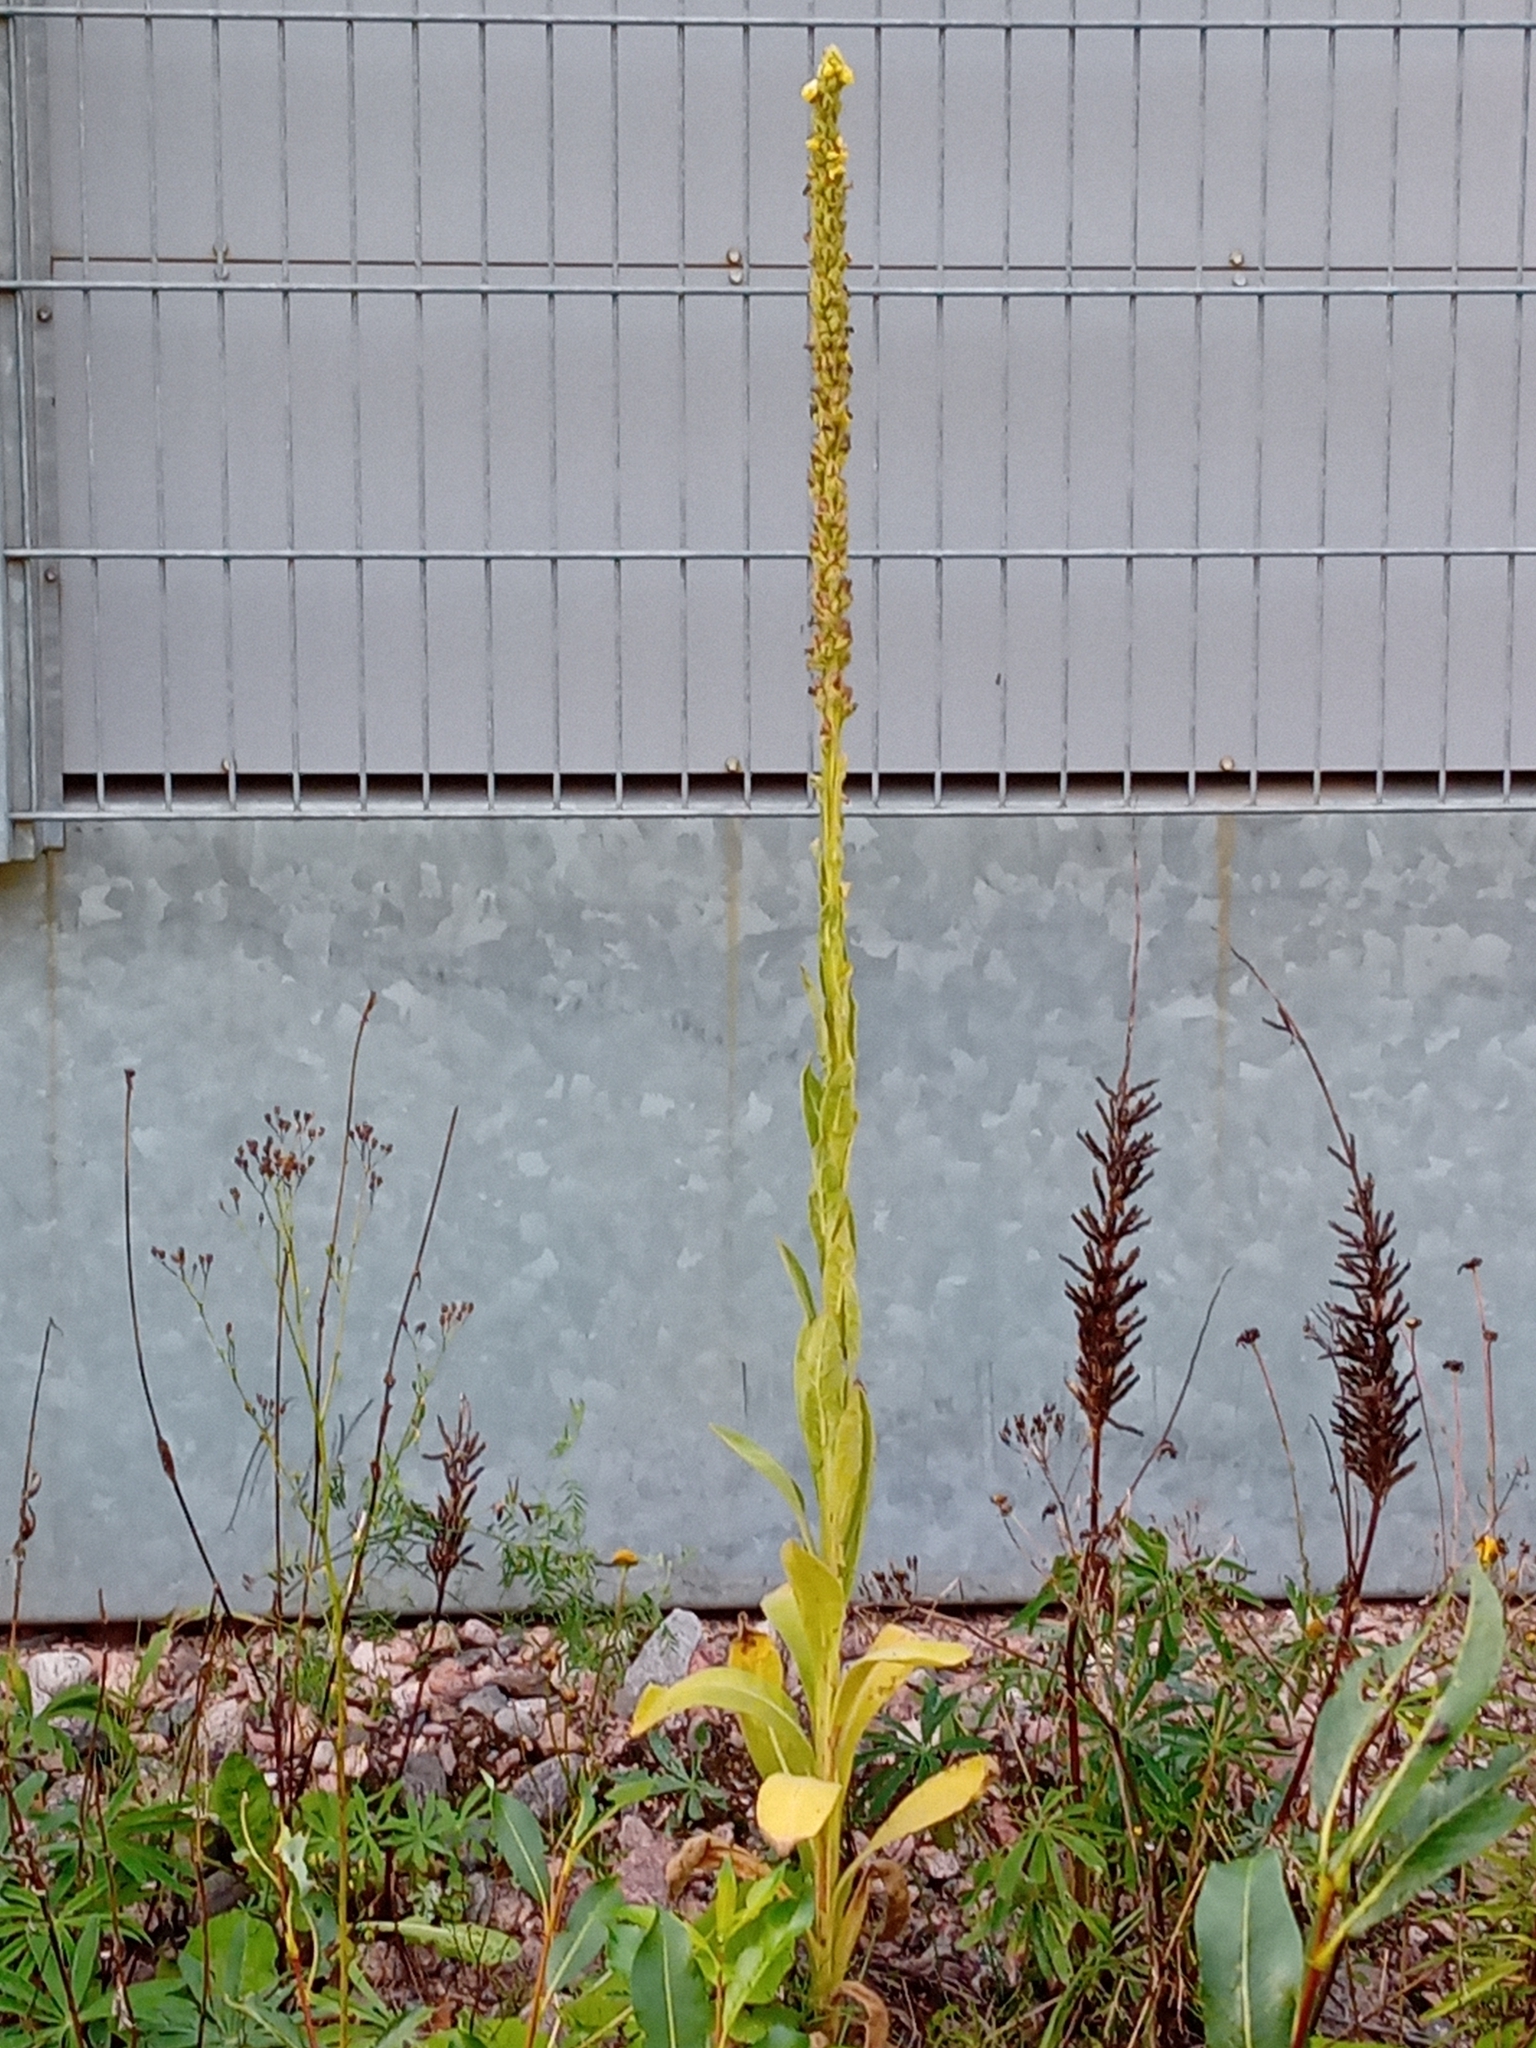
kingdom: Plantae
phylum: Tracheophyta
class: Magnoliopsida
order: Lamiales
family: Scrophulariaceae
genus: Verbascum
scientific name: Verbascum thapsus
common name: Common mullein
